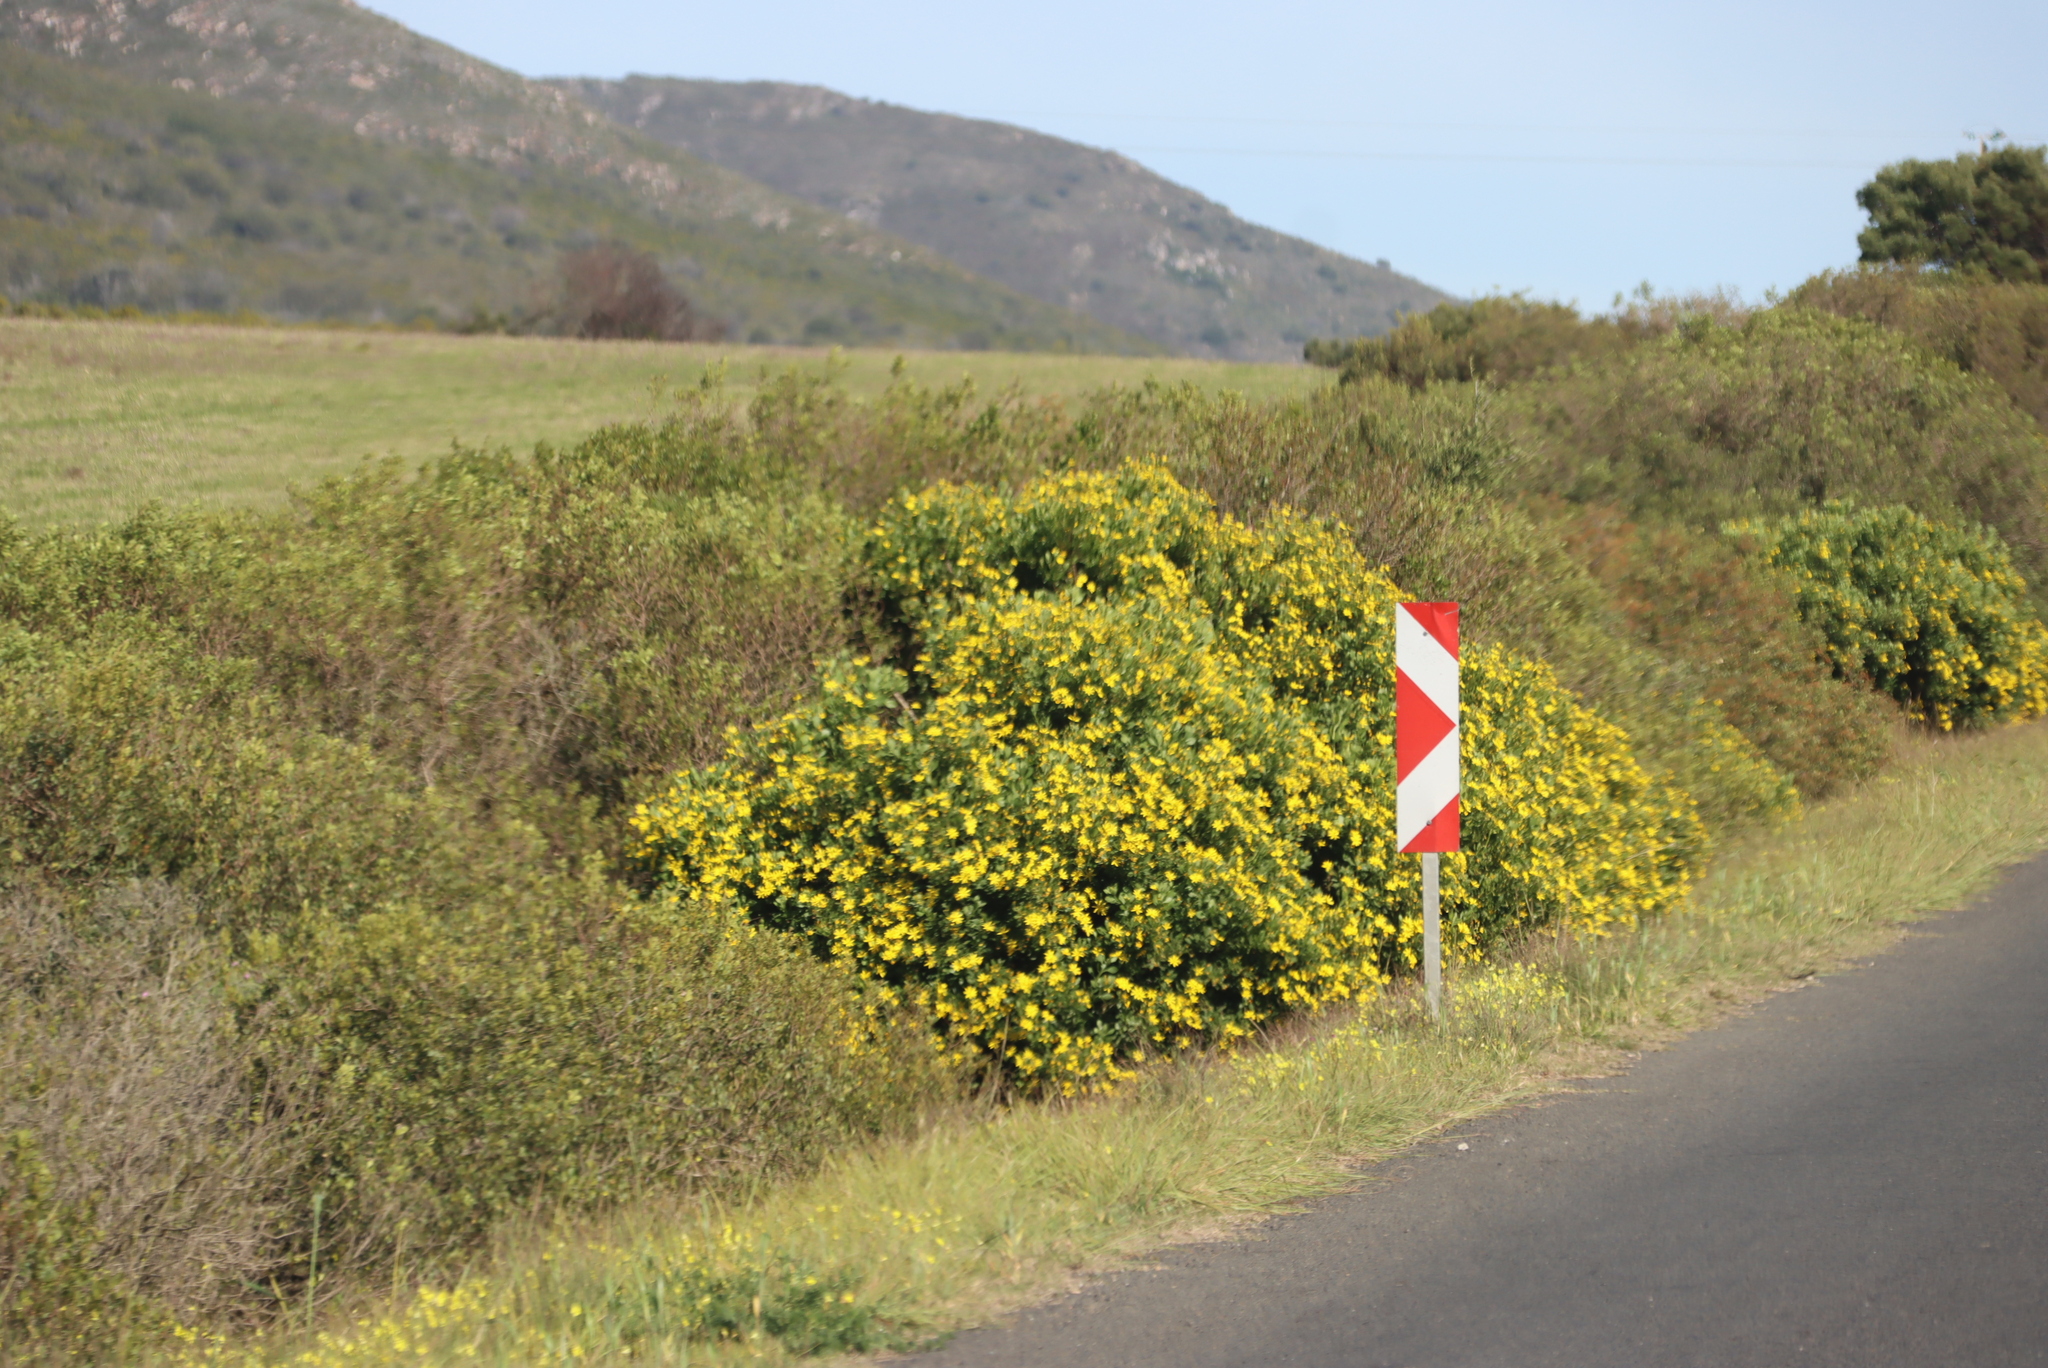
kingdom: Plantae
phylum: Tracheophyta
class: Magnoliopsida
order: Asterales
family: Asteraceae
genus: Osteospermum
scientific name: Osteospermum moniliferum
